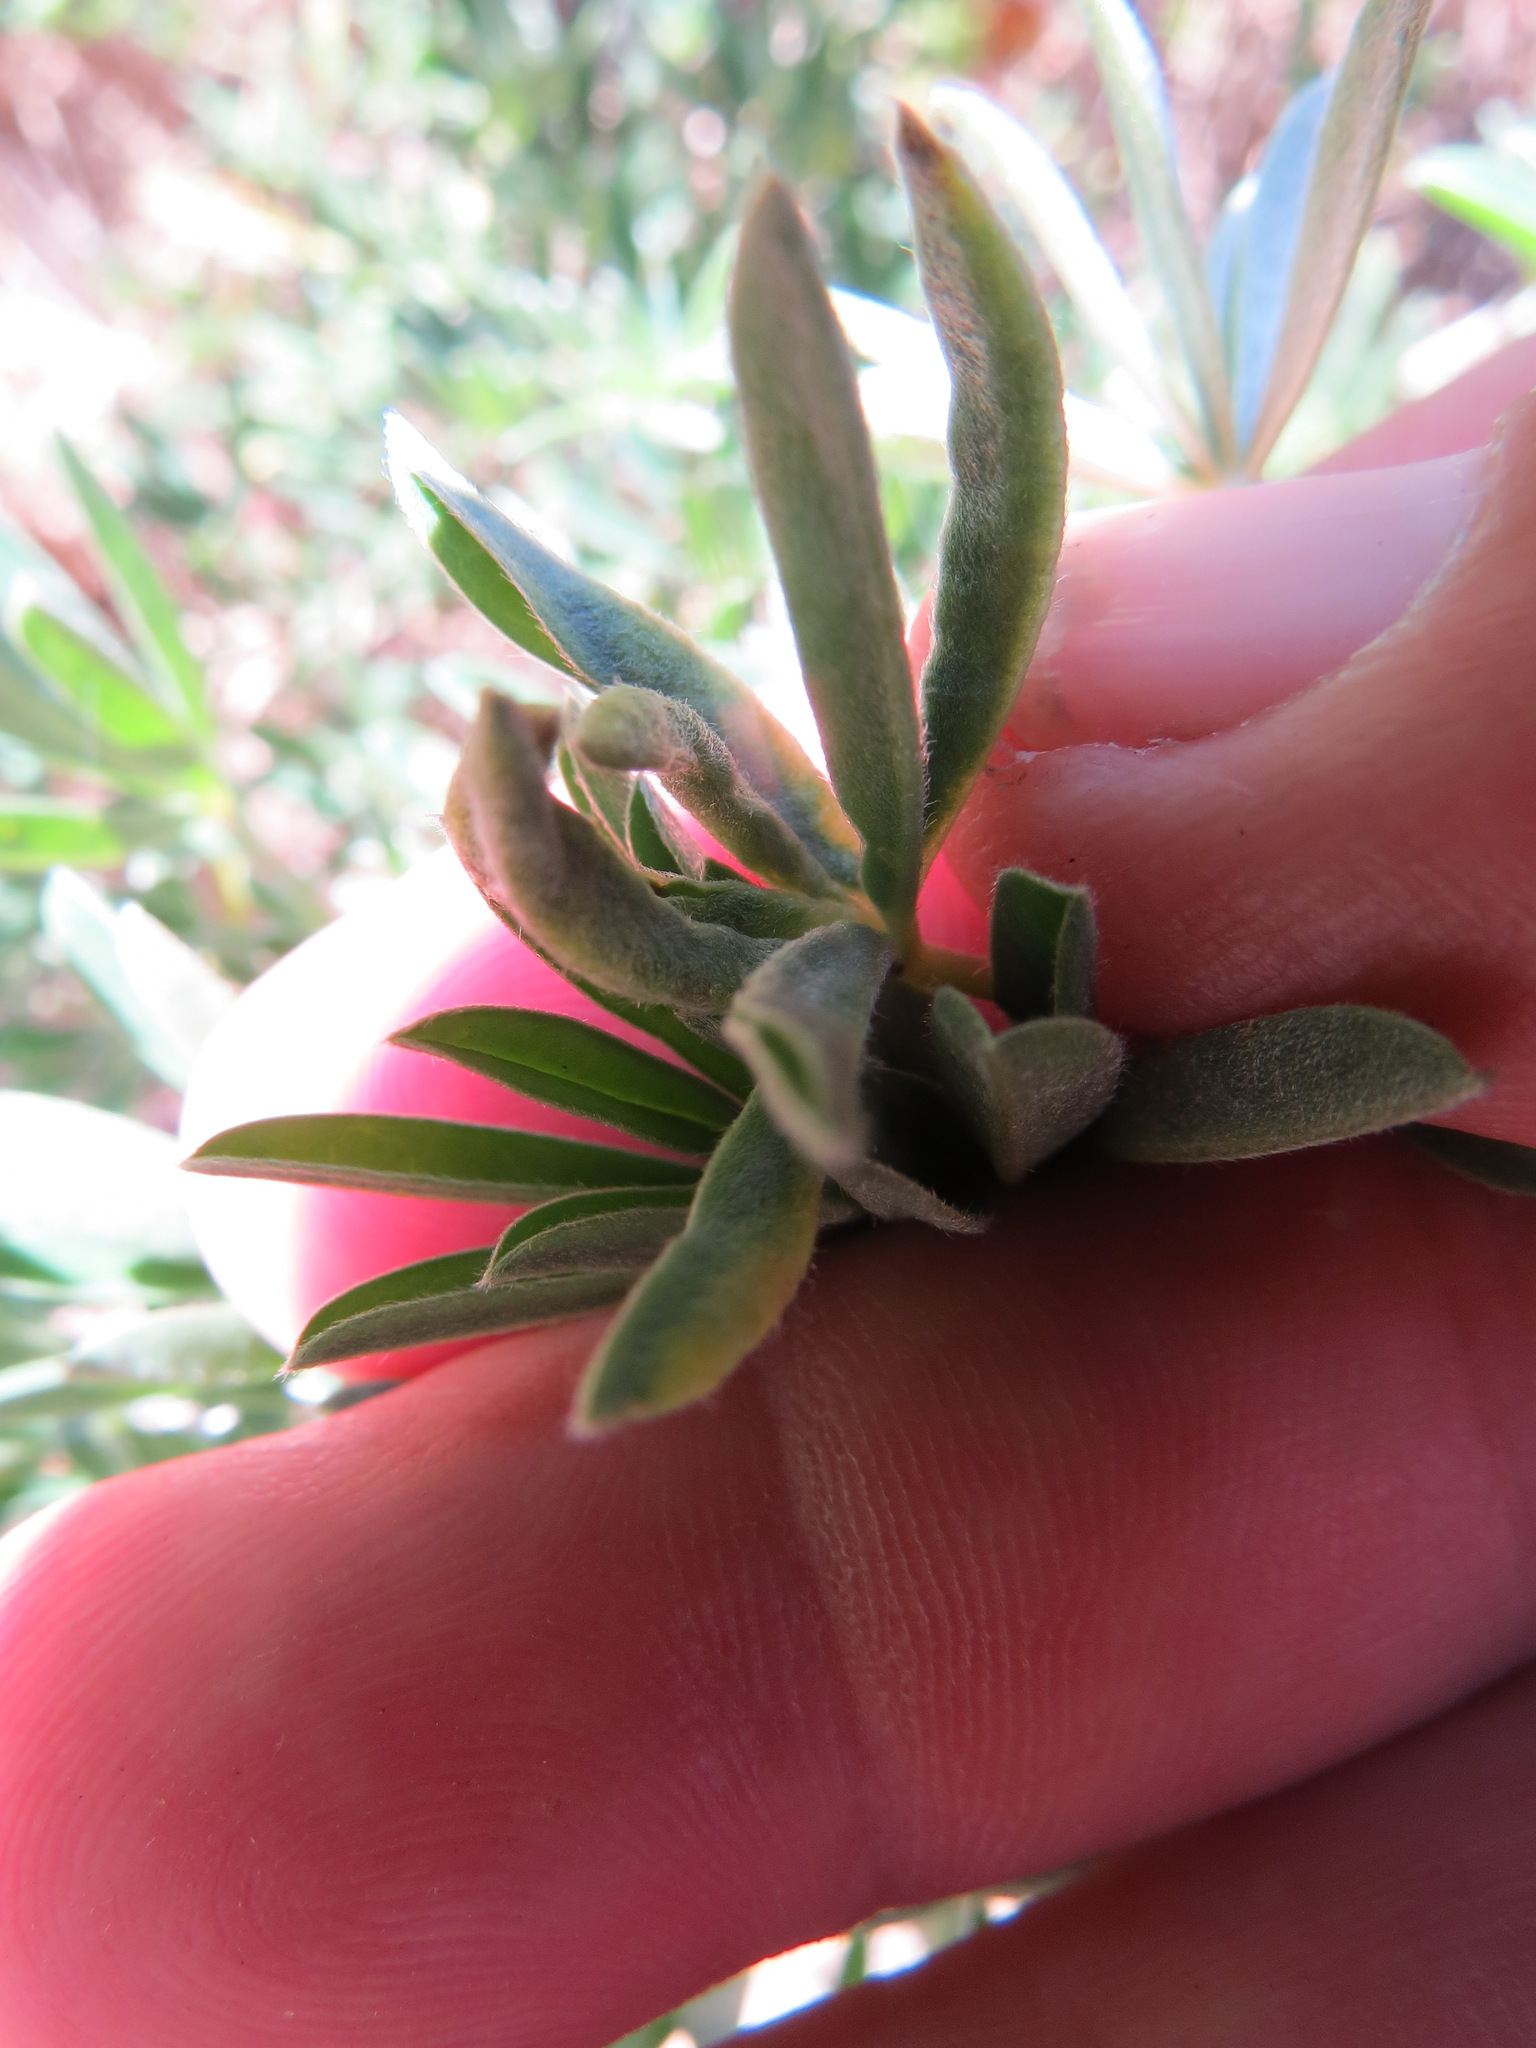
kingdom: Animalia
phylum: Arthropoda
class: Insecta
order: Diptera
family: Cecidomyiidae
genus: Dasineura
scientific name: Dasineura lupinorum
